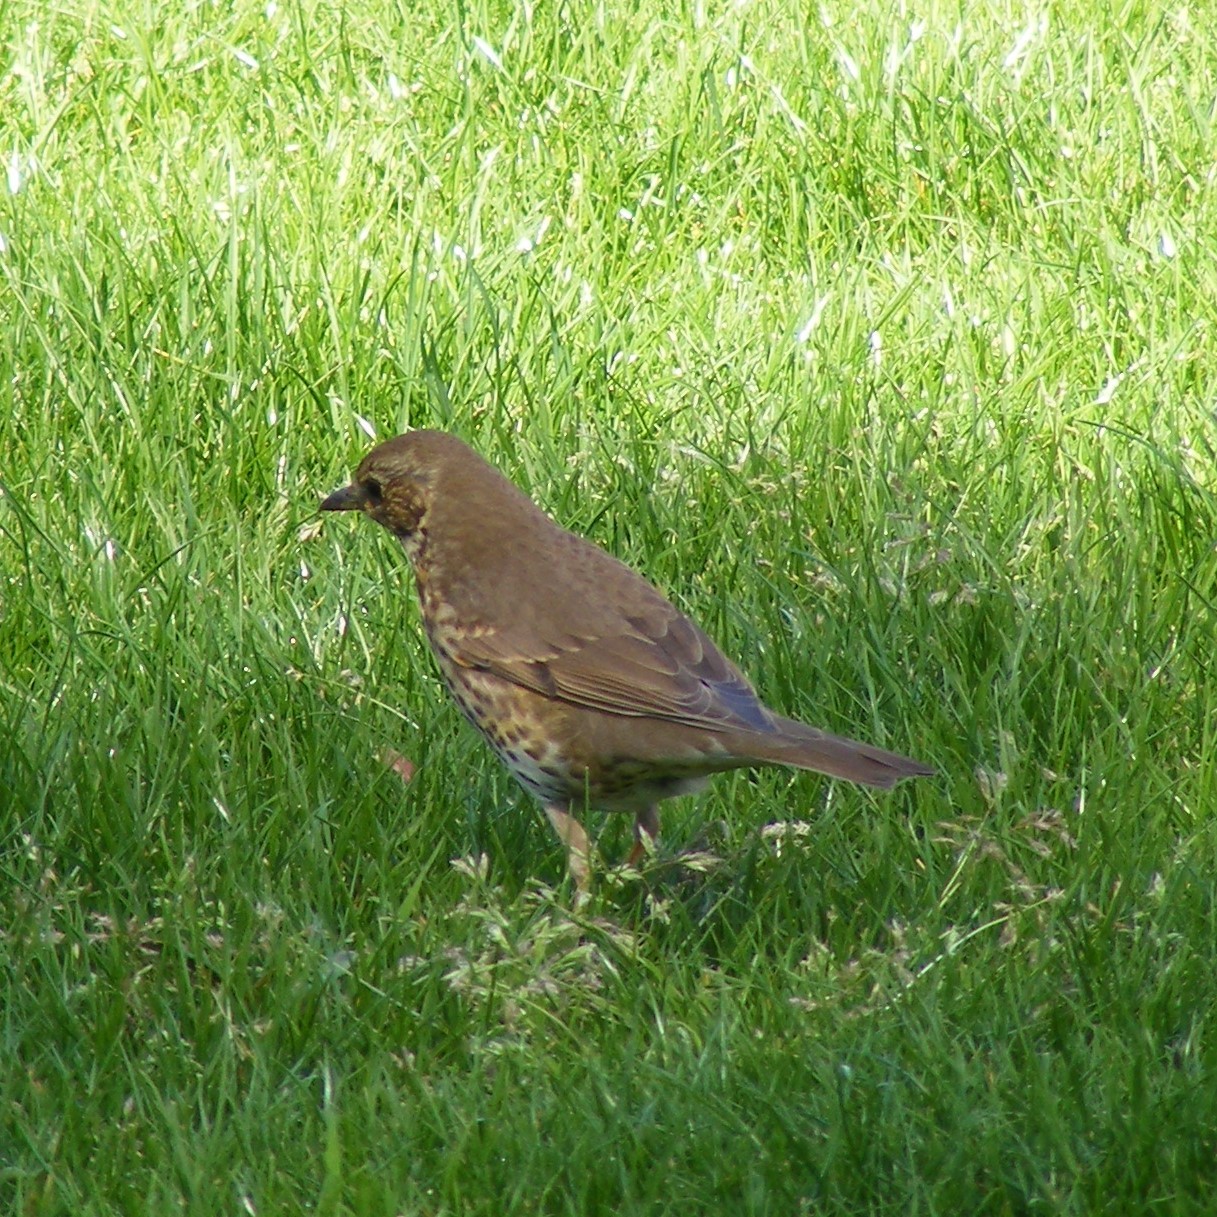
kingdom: Animalia
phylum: Chordata
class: Aves
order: Passeriformes
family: Turdidae
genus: Turdus
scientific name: Turdus philomelos
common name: Song thrush
